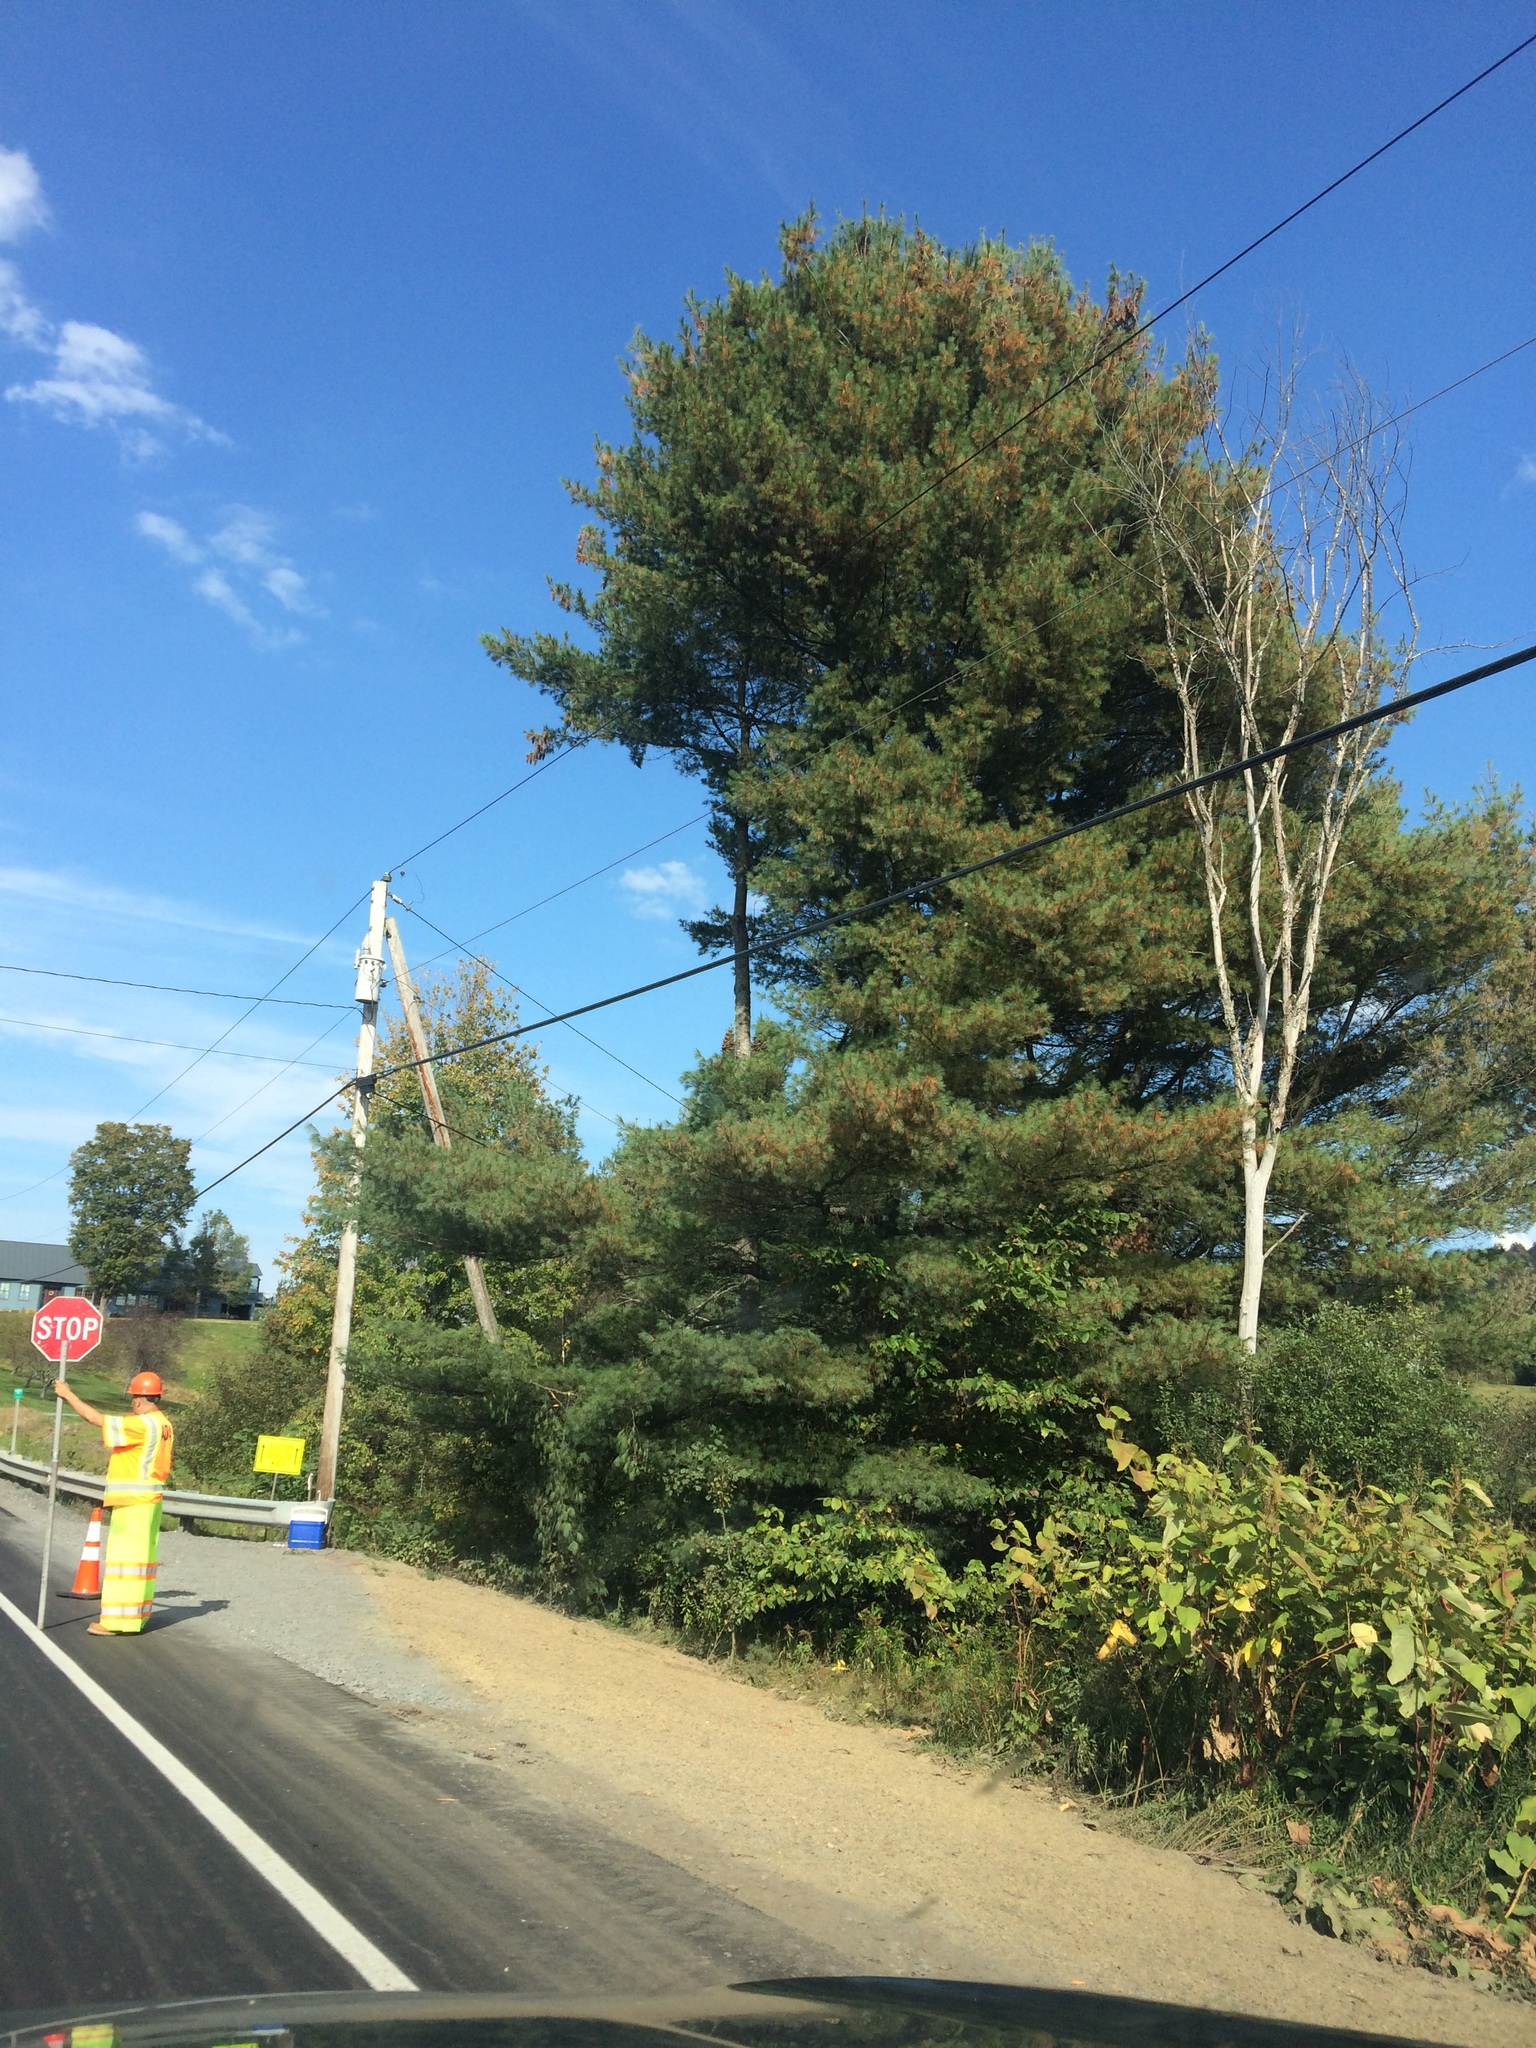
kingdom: Plantae
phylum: Tracheophyta
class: Pinopsida
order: Pinales
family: Pinaceae
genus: Pinus
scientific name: Pinus strobus
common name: Weymouth pine
